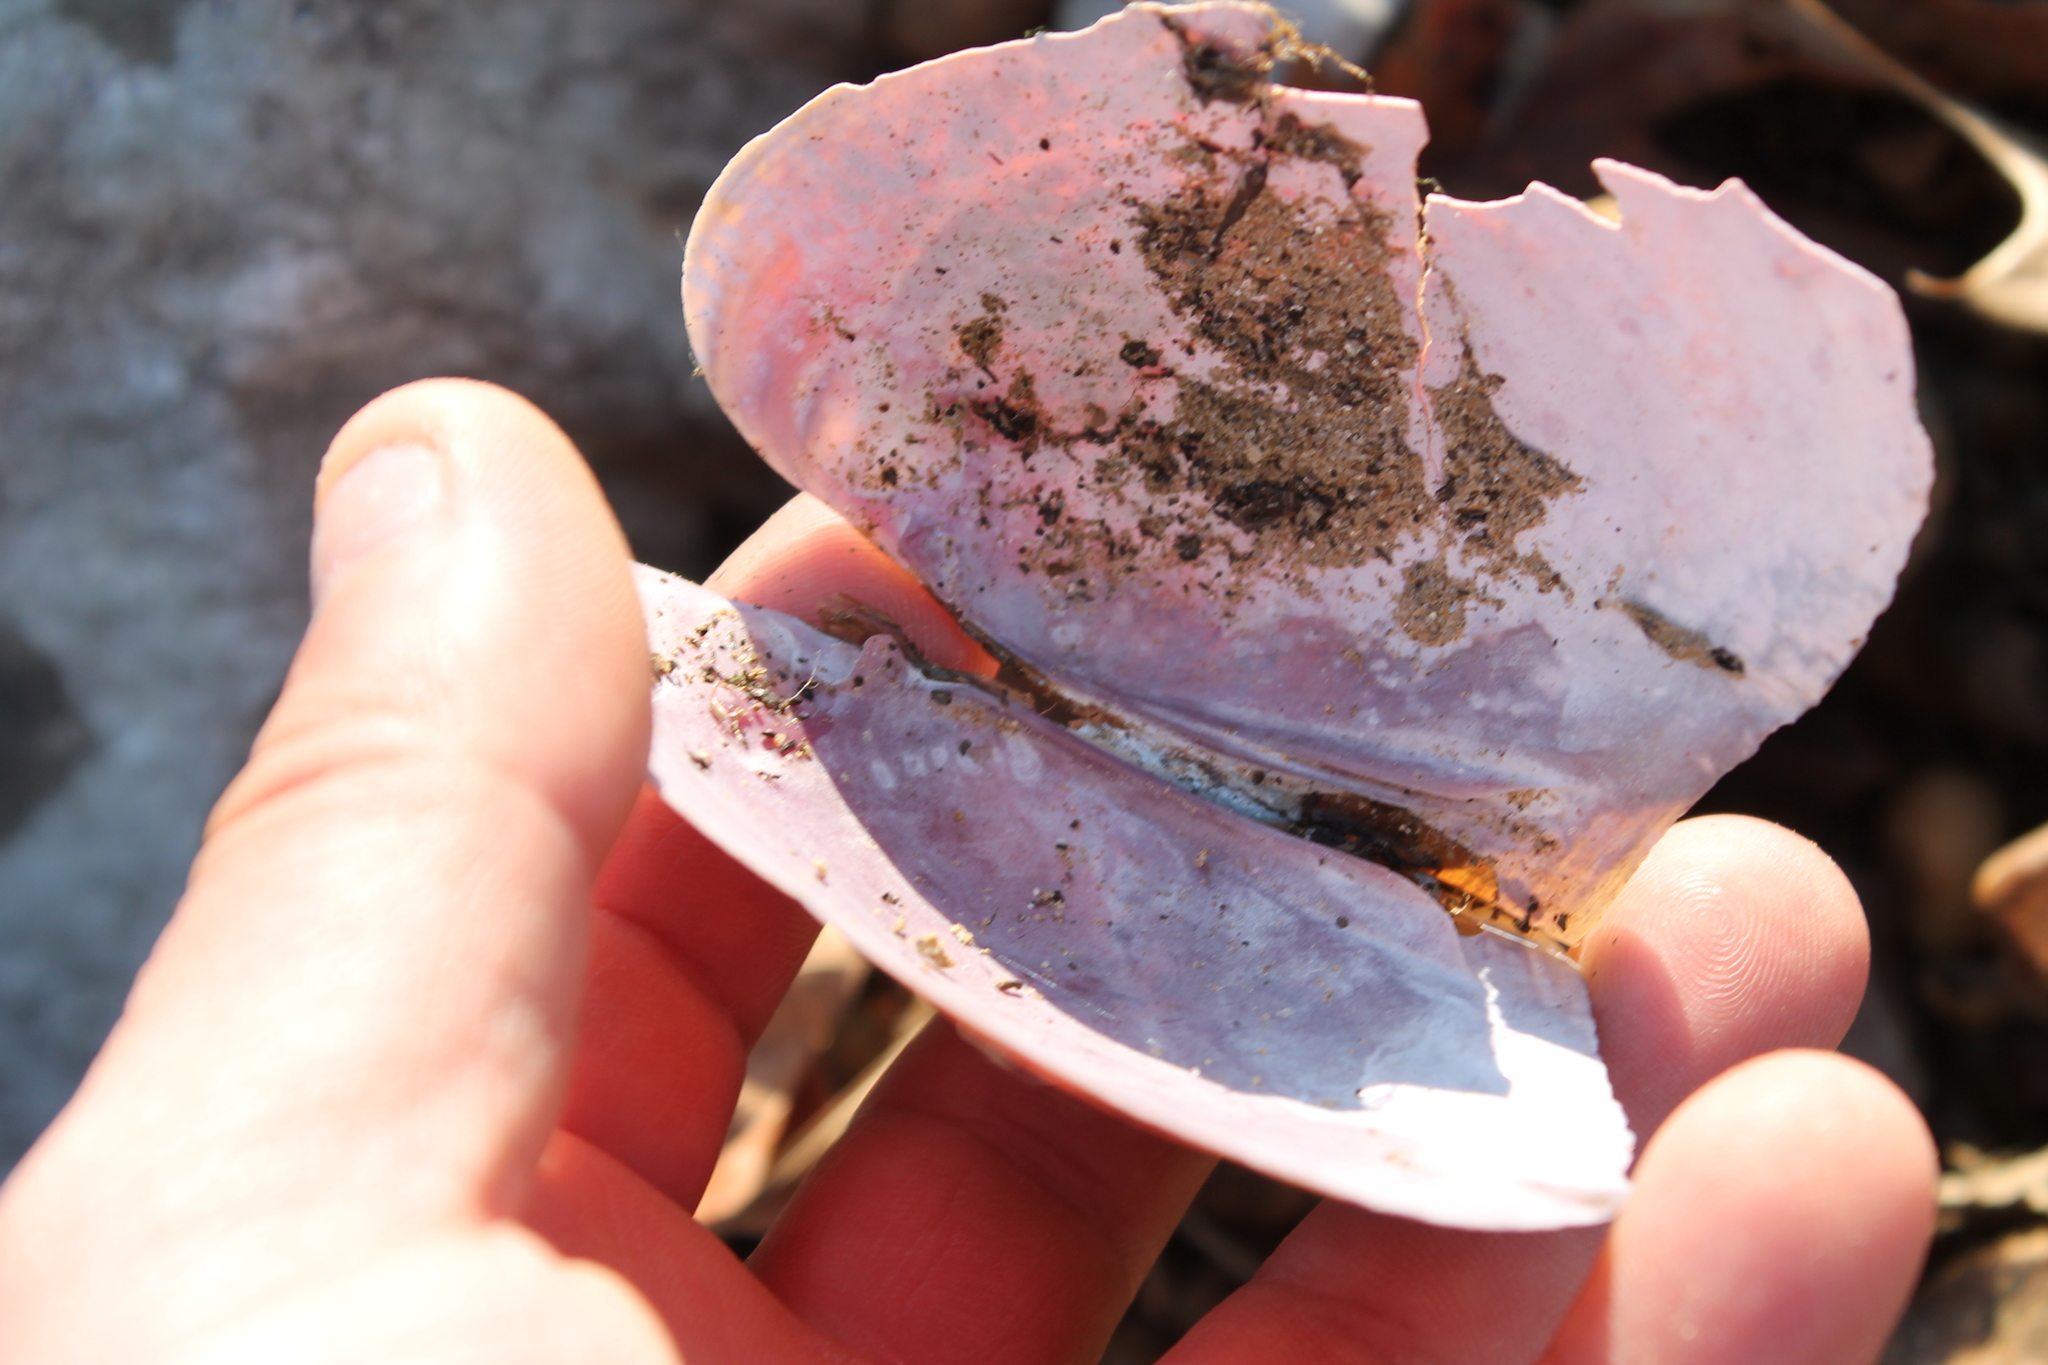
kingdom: Animalia
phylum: Mollusca
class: Bivalvia
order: Unionida
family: Unionidae
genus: Potamilus
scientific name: Potamilus alatus
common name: Pink heelsplitter
